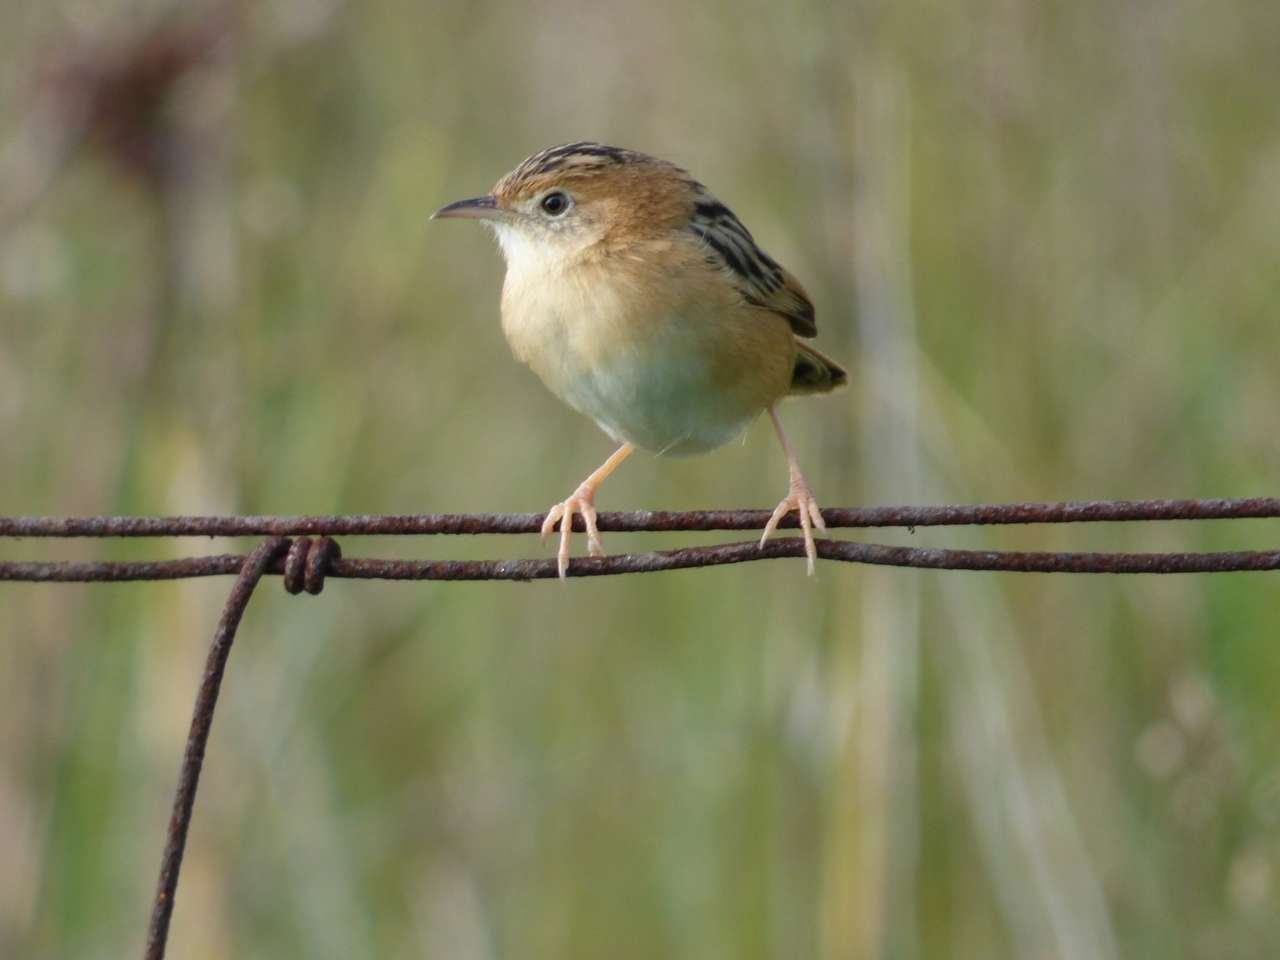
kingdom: Animalia
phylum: Chordata
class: Aves
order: Passeriformes
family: Cisticolidae
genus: Cisticola
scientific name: Cisticola exilis
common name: Golden-headed cisticola
